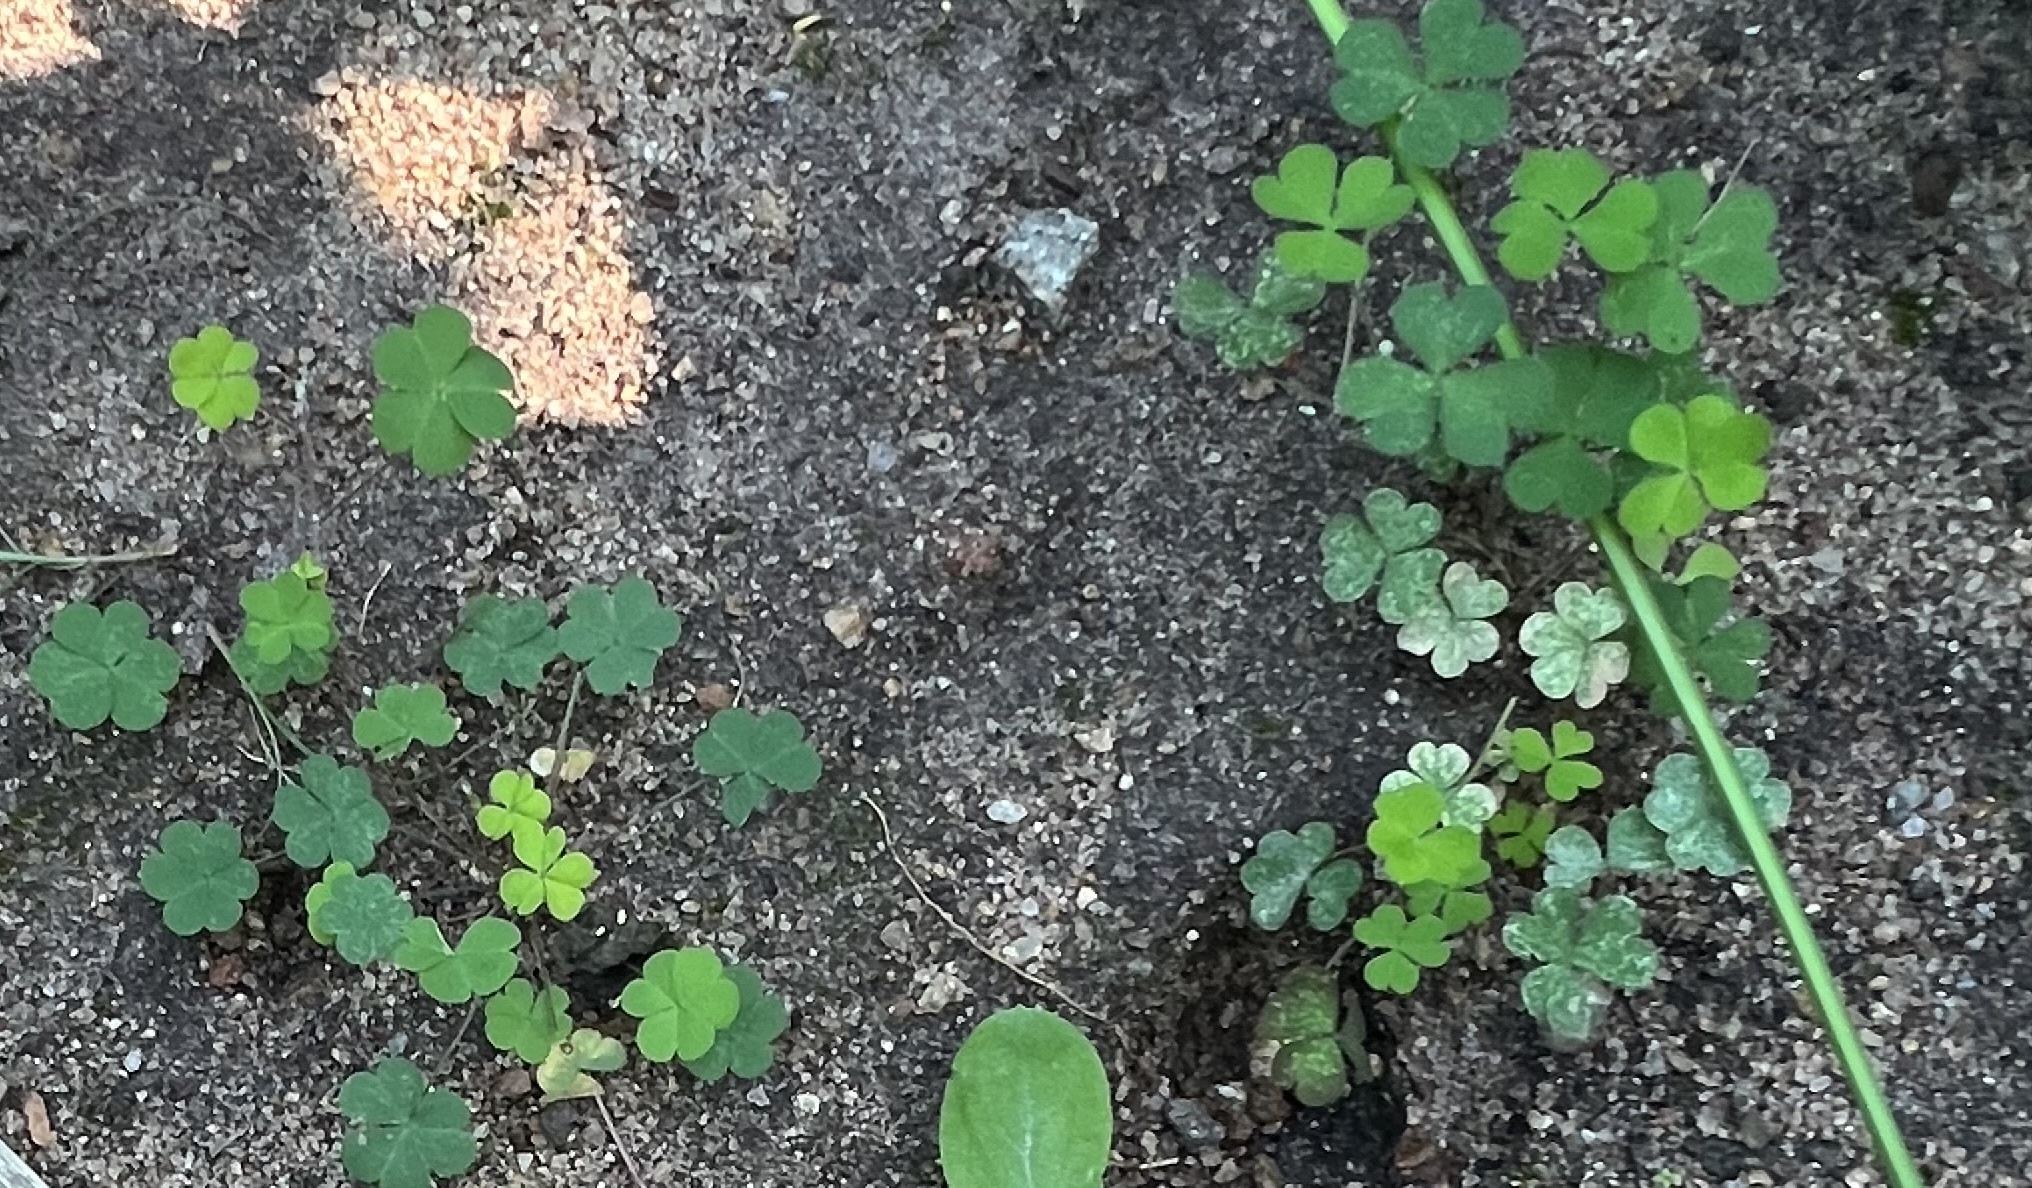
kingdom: Plantae
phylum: Tracheophyta
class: Magnoliopsida
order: Oxalidales
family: Oxalidaceae
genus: Oxalis
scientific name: Oxalis corniculata
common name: Procumbent yellow-sorrel
